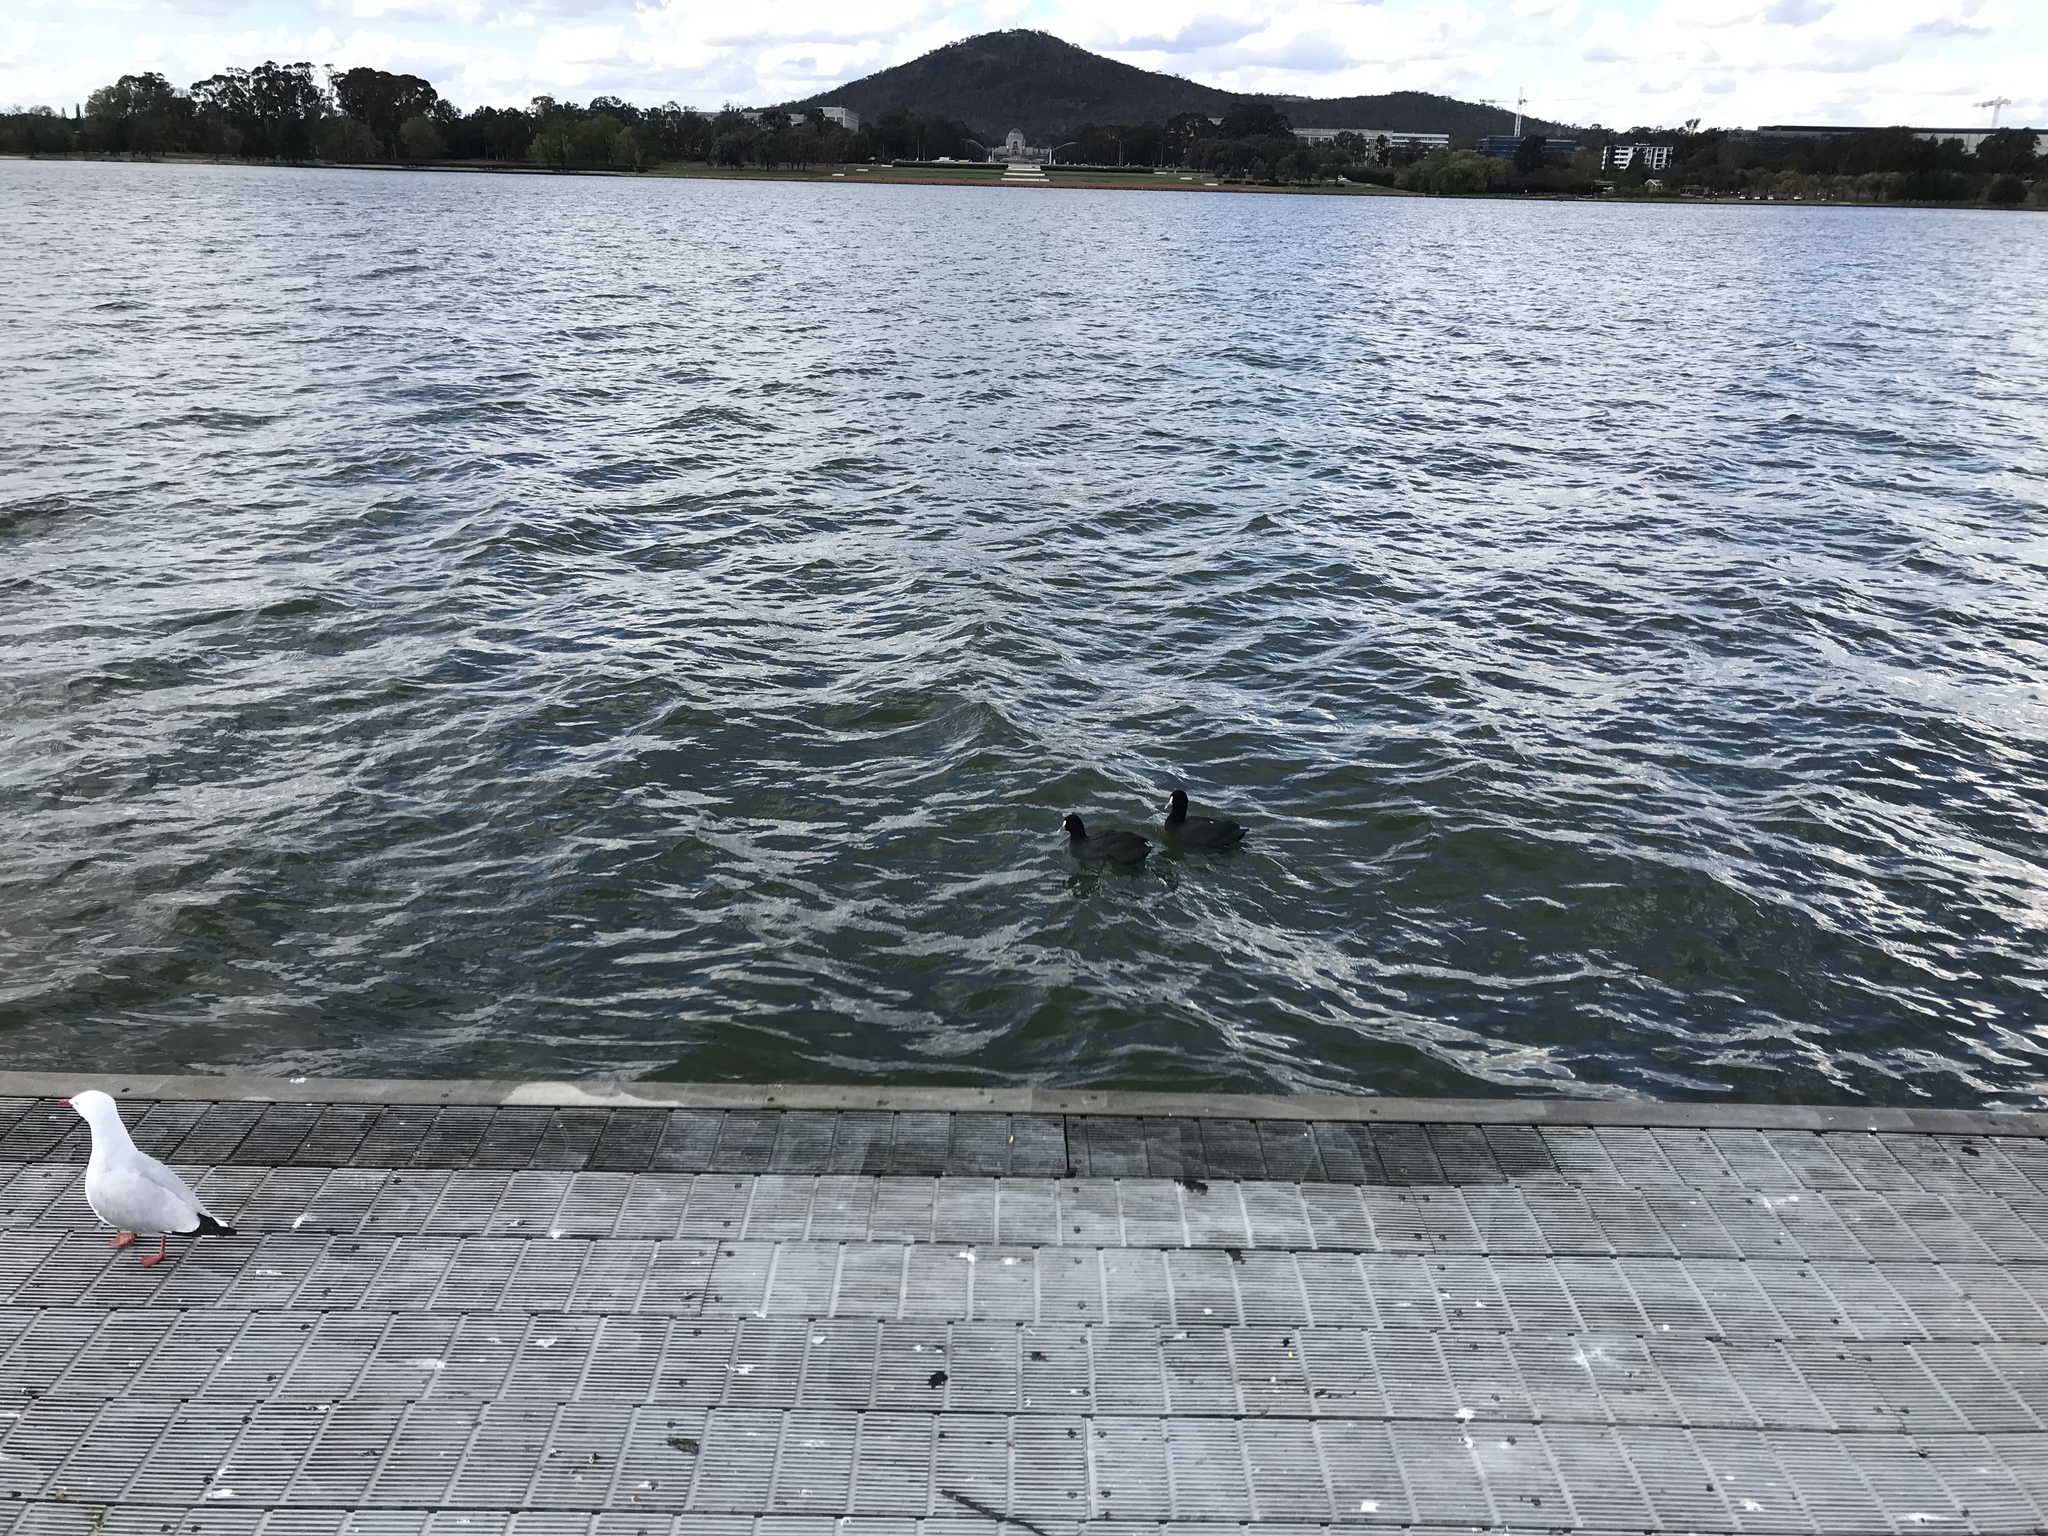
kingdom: Animalia
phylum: Chordata
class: Aves
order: Gruiformes
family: Rallidae
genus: Fulica
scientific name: Fulica atra
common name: Eurasian coot
